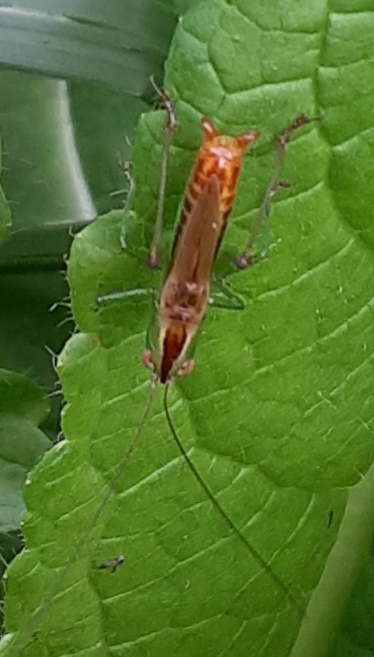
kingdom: Animalia
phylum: Arthropoda
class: Insecta
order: Orthoptera
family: Tettigoniidae
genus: Conocephalus
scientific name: Conocephalus brevipennis
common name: Short-winged meadow katydid
